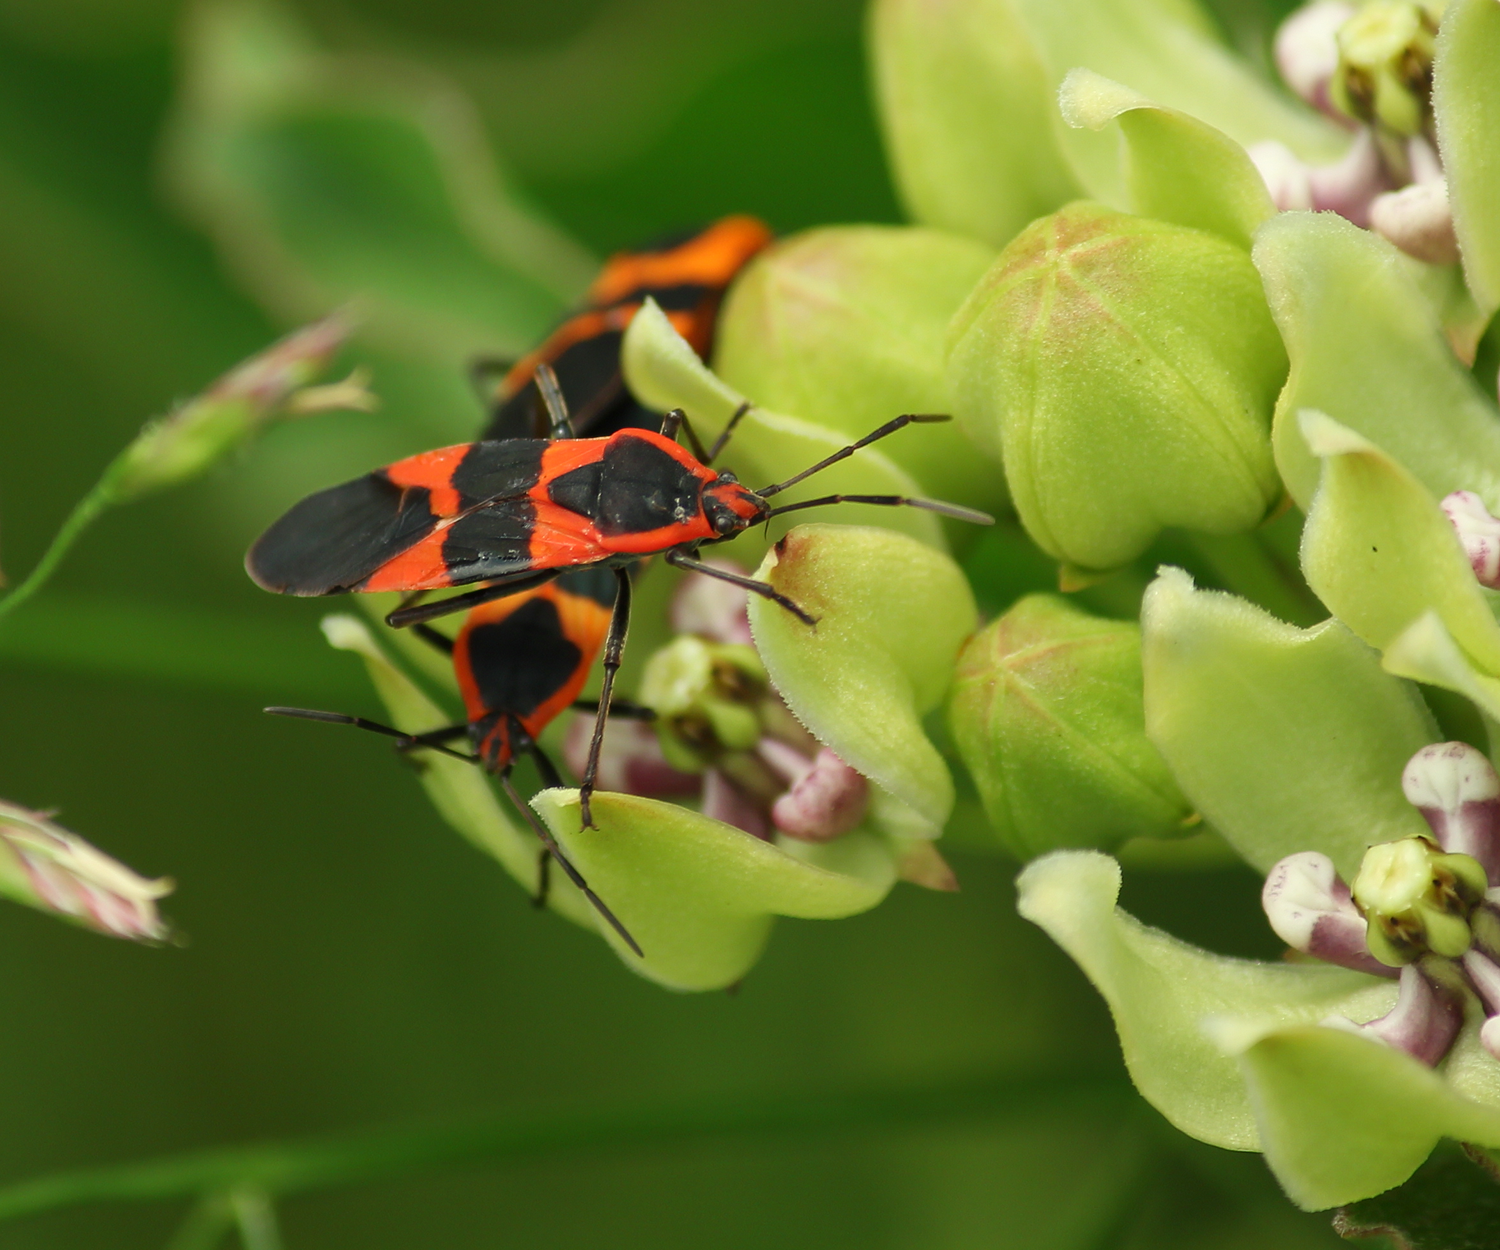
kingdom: Animalia
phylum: Arthropoda
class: Insecta
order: Hemiptera
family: Lygaeidae
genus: Oncopeltus
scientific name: Oncopeltus fasciatus
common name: Large milkweed bug
